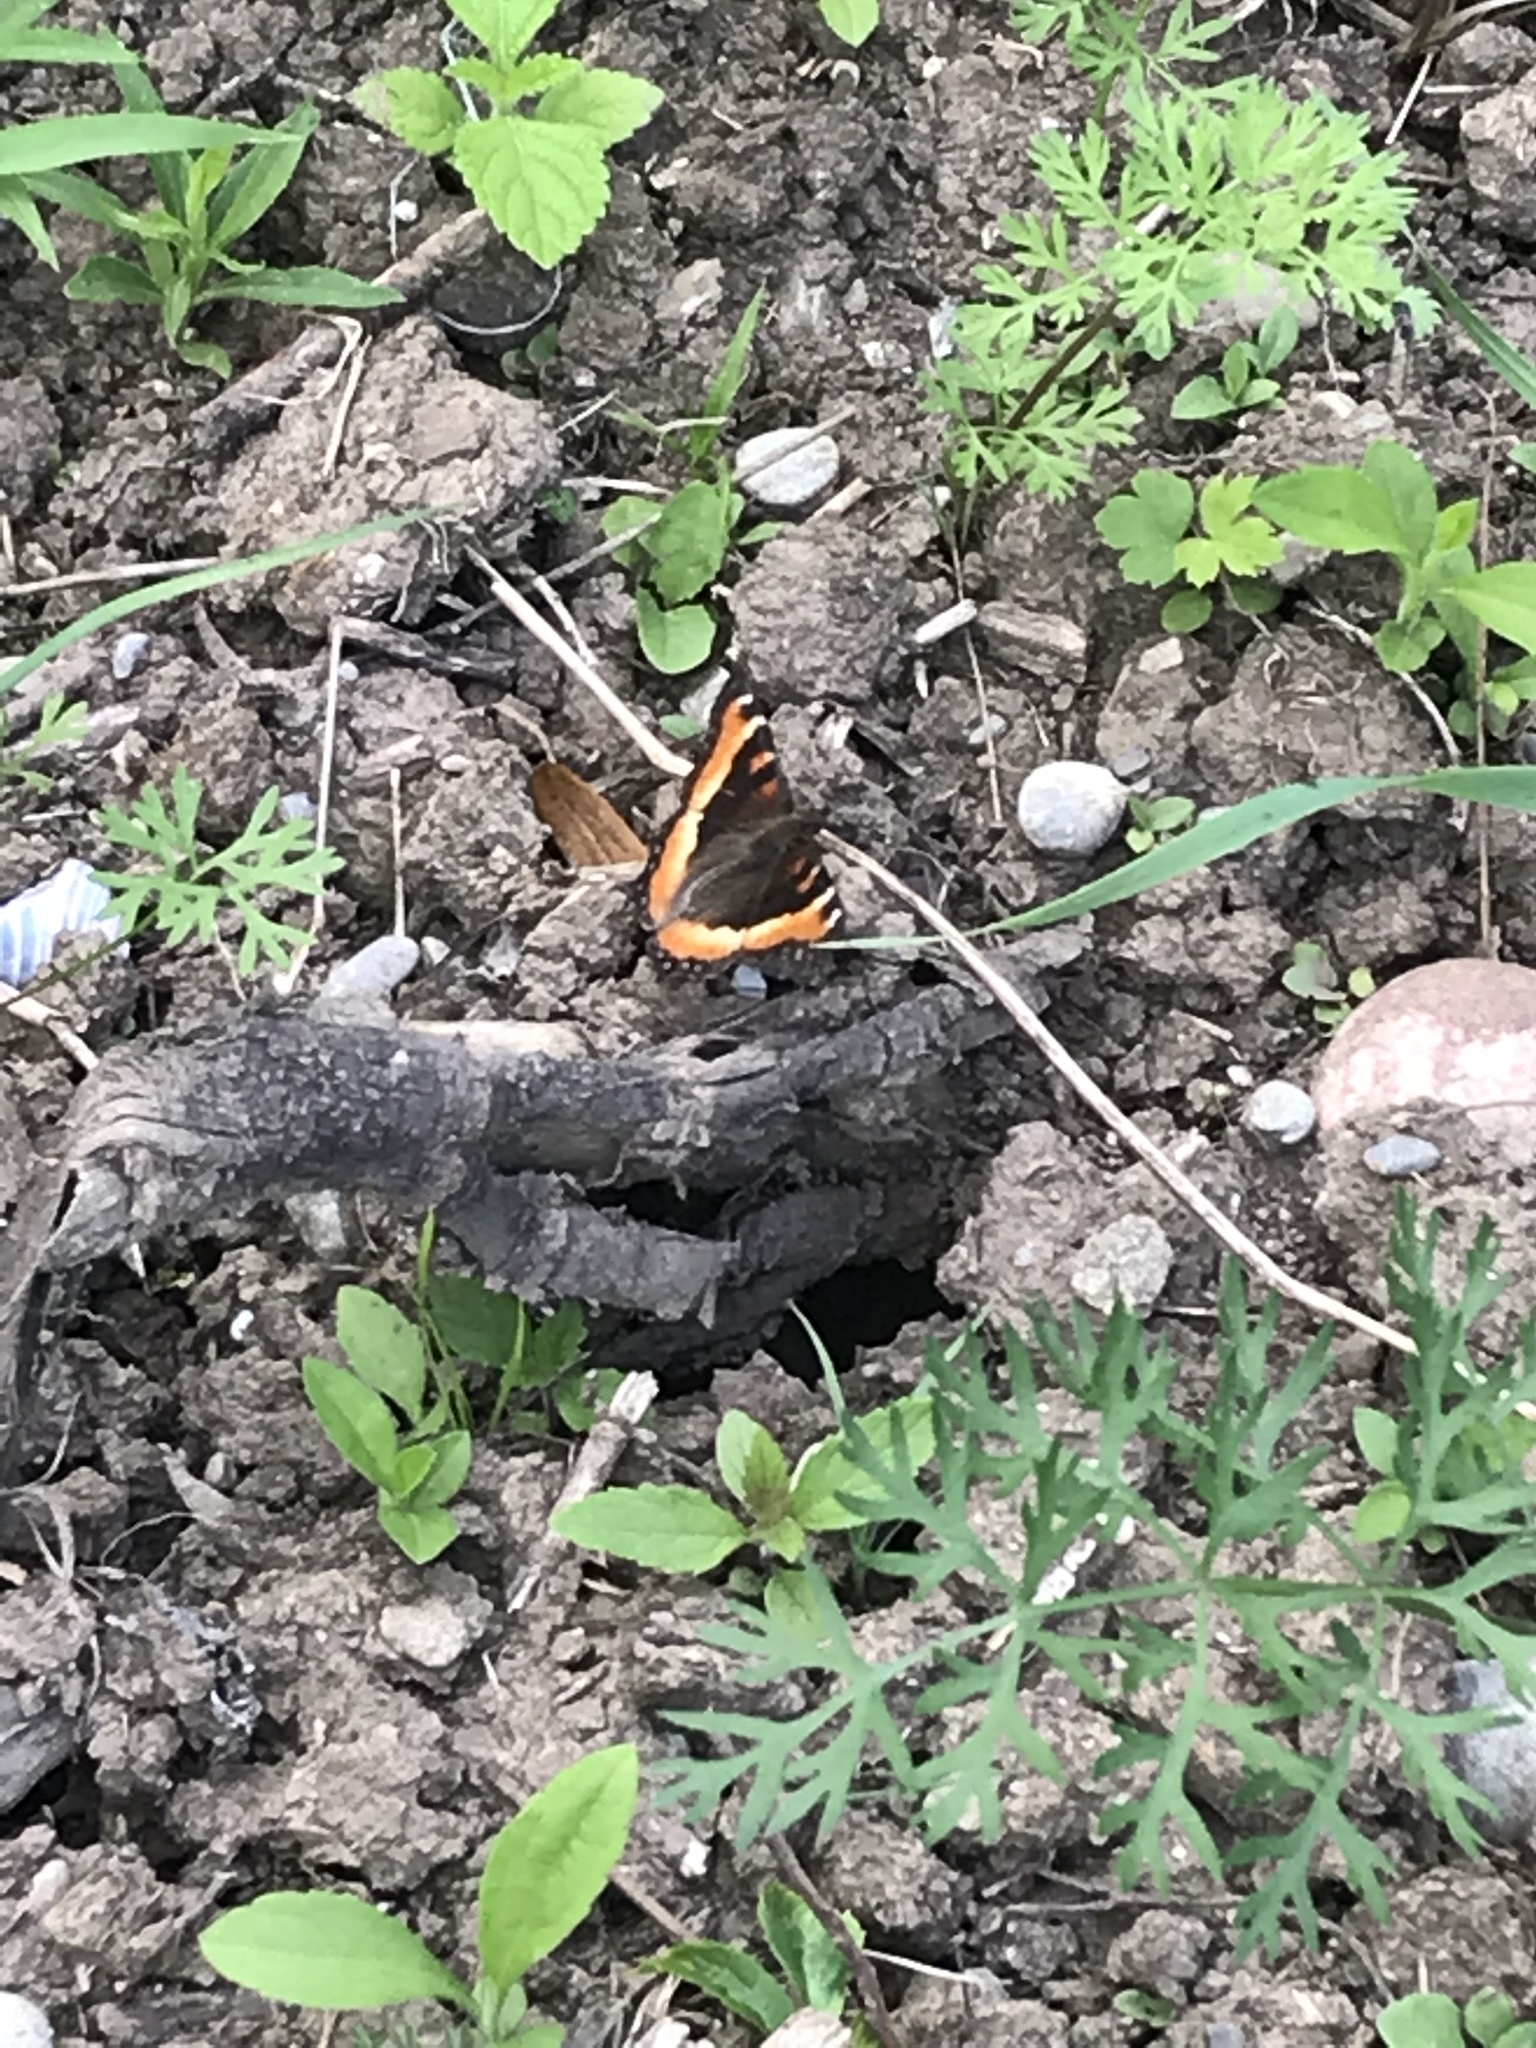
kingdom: Animalia
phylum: Arthropoda
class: Insecta
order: Lepidoptera
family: Nymphalidae
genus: Aglais
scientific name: Aglais milberti
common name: Milbert's tortoiseshell
